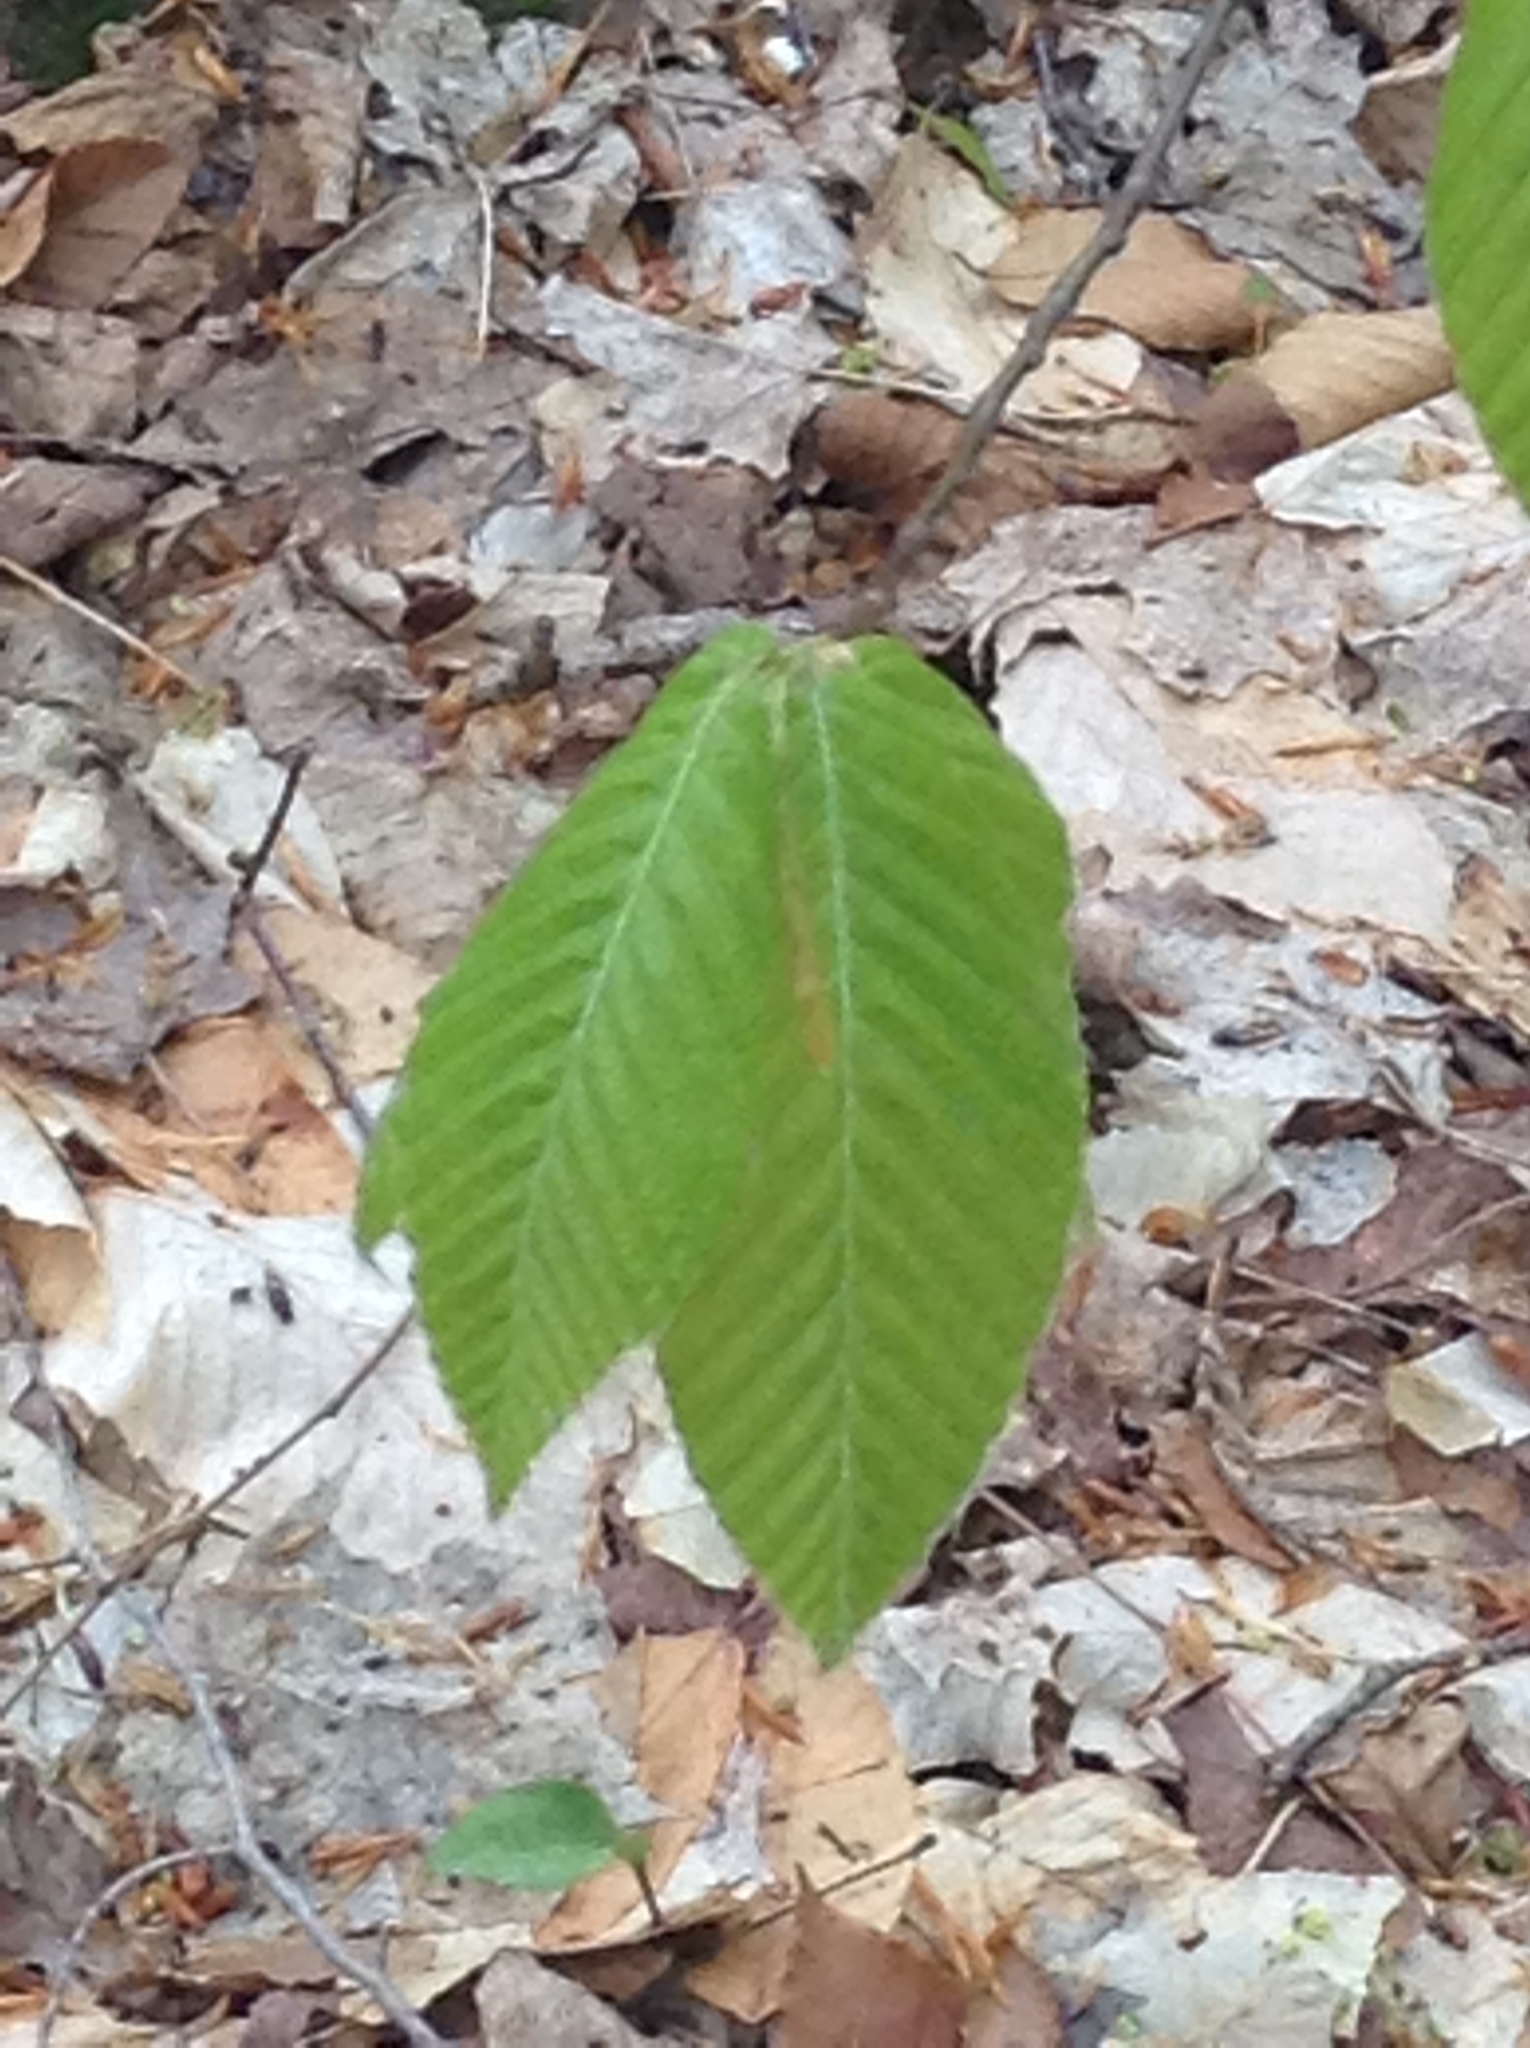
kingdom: Plantae
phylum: Tracheophyta
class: Magnoliopsida
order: Fagales
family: Fagaceae
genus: Fagus
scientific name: Fagus grandifolia
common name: American beech
